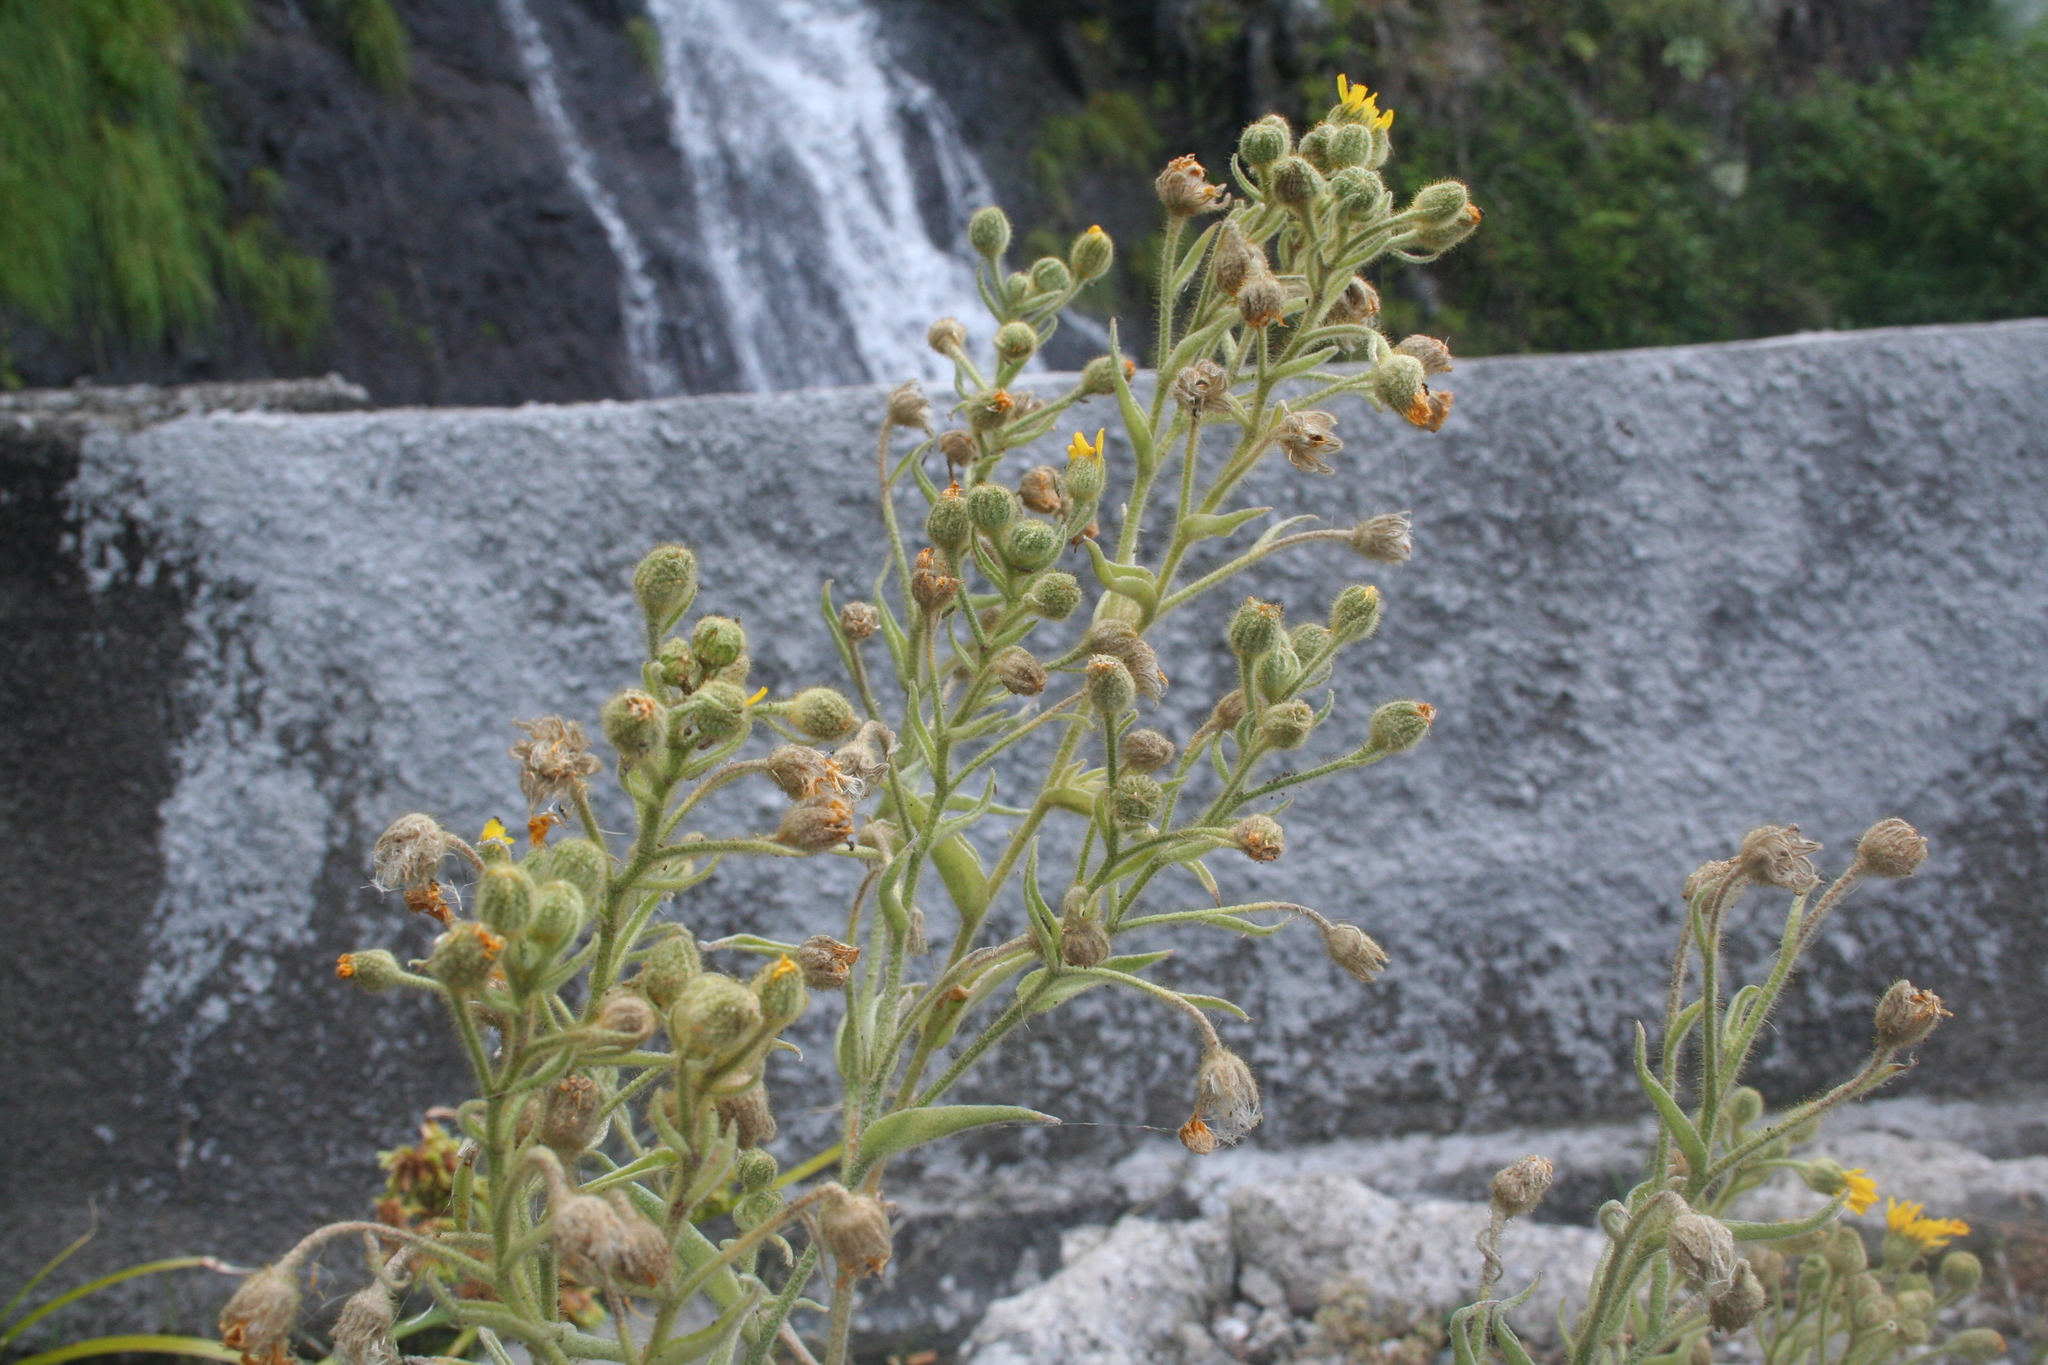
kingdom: Plantae
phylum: Tracheophyta
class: Magnoliopsida
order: Asterales
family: Asteraceae
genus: Andryala
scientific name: Andryala glandulosa
